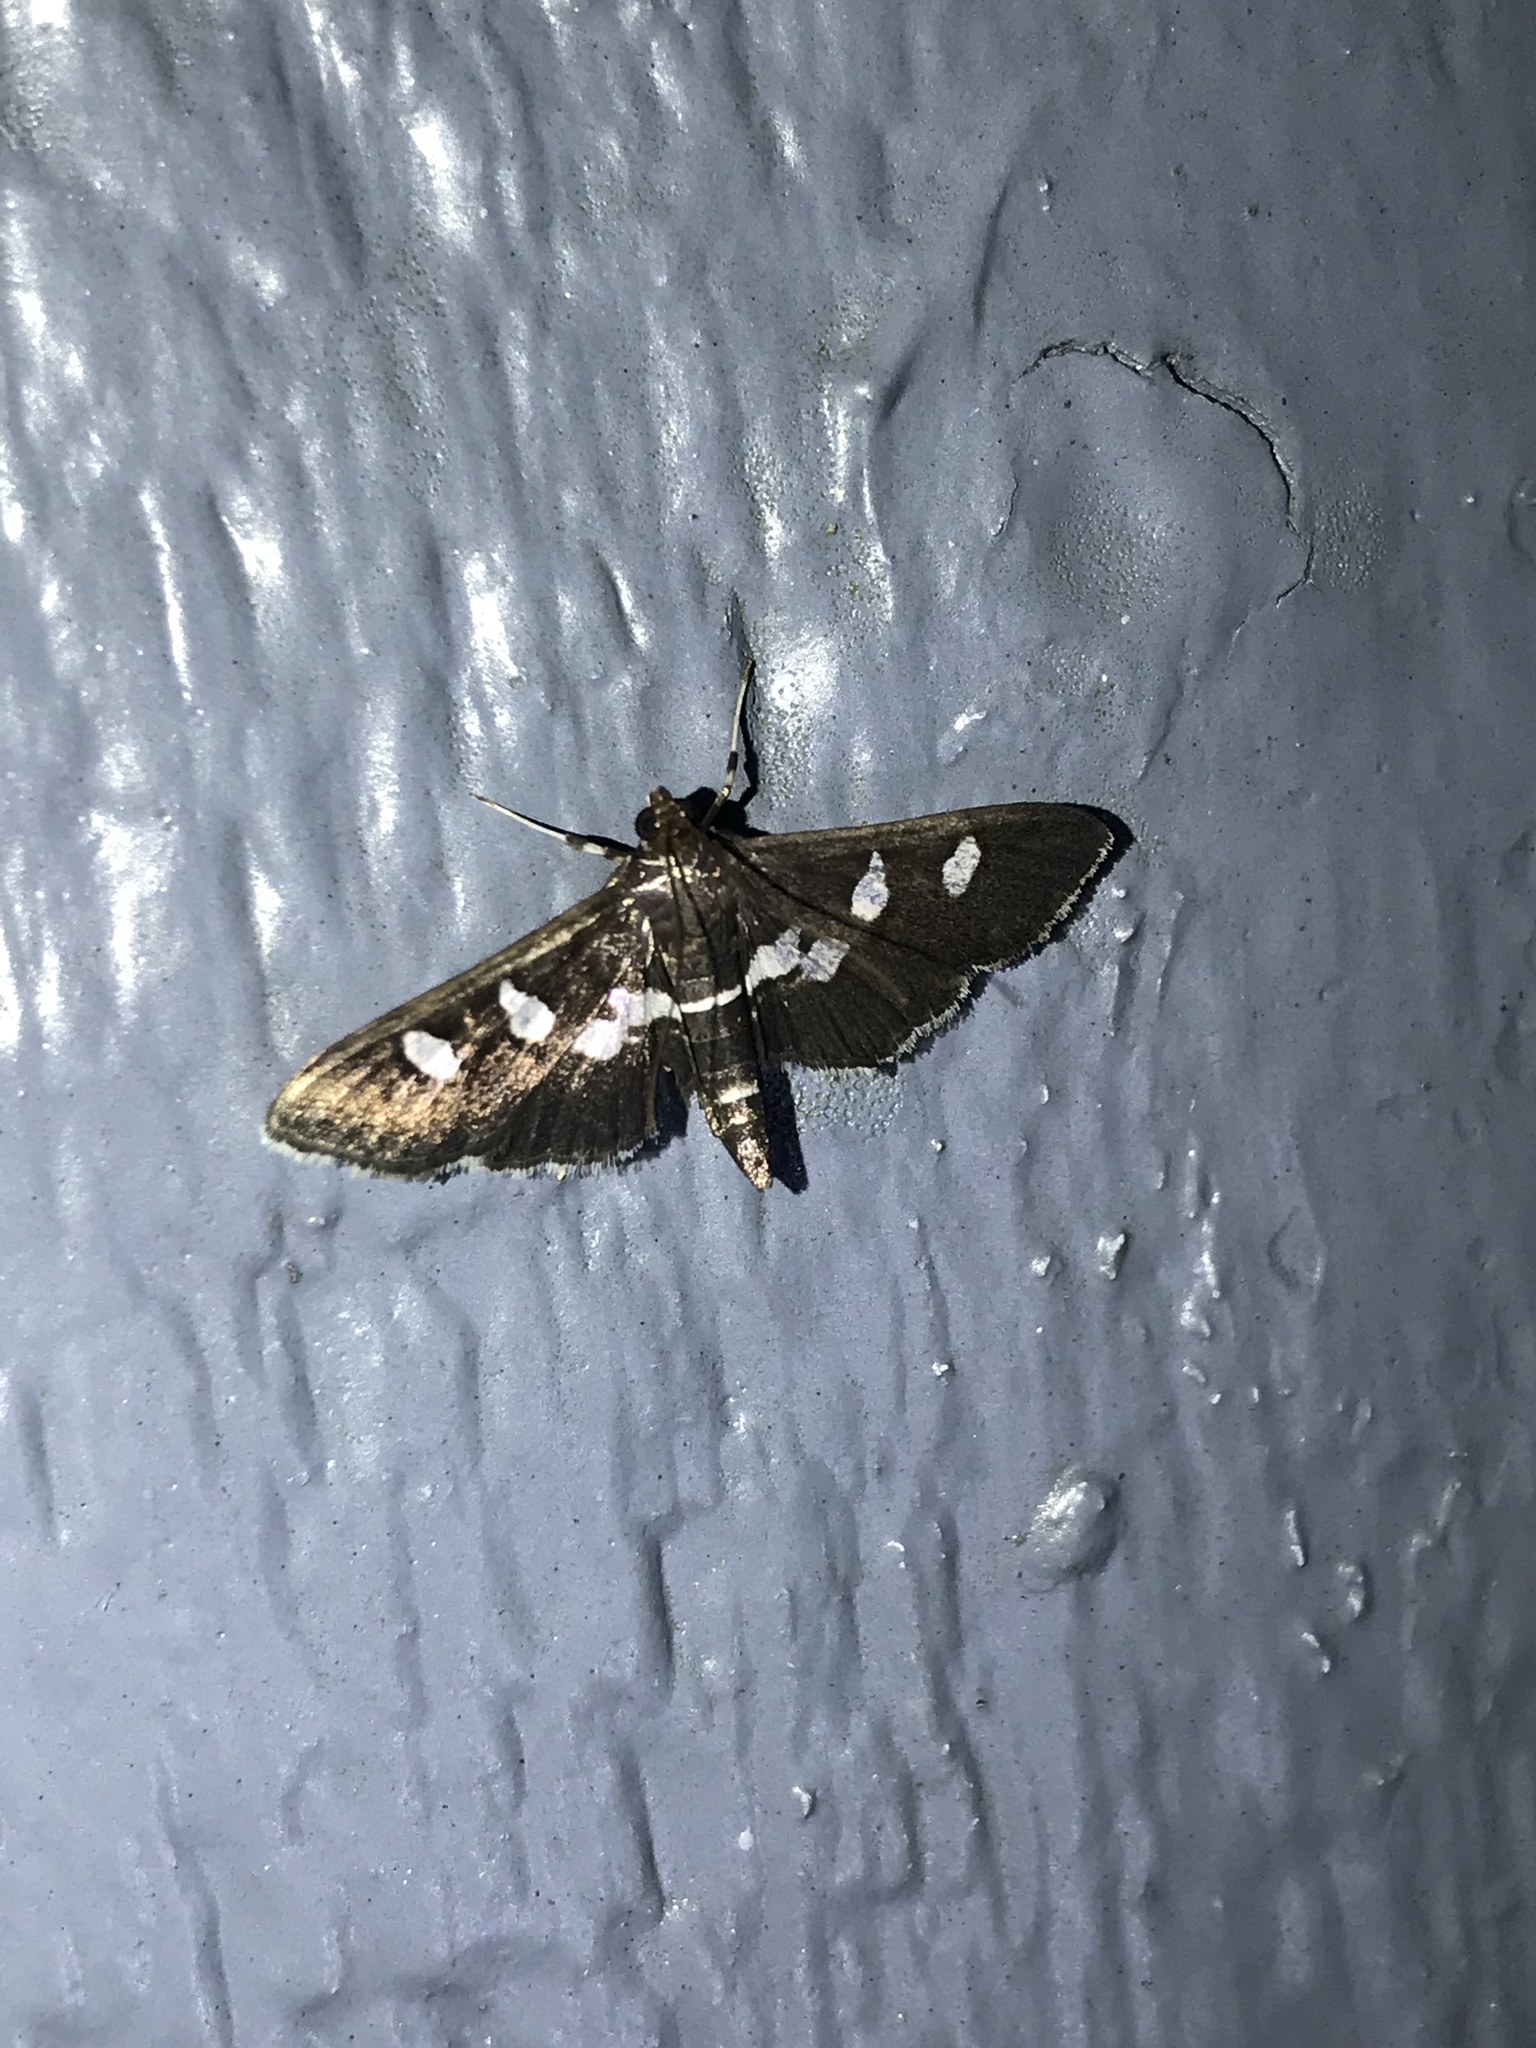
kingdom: Animalia
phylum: Arthropoda
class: Insecta
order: Lepidoptera
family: Crambidae
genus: Desmia
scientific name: Desmia funeralis
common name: Grape leaf folder moth
